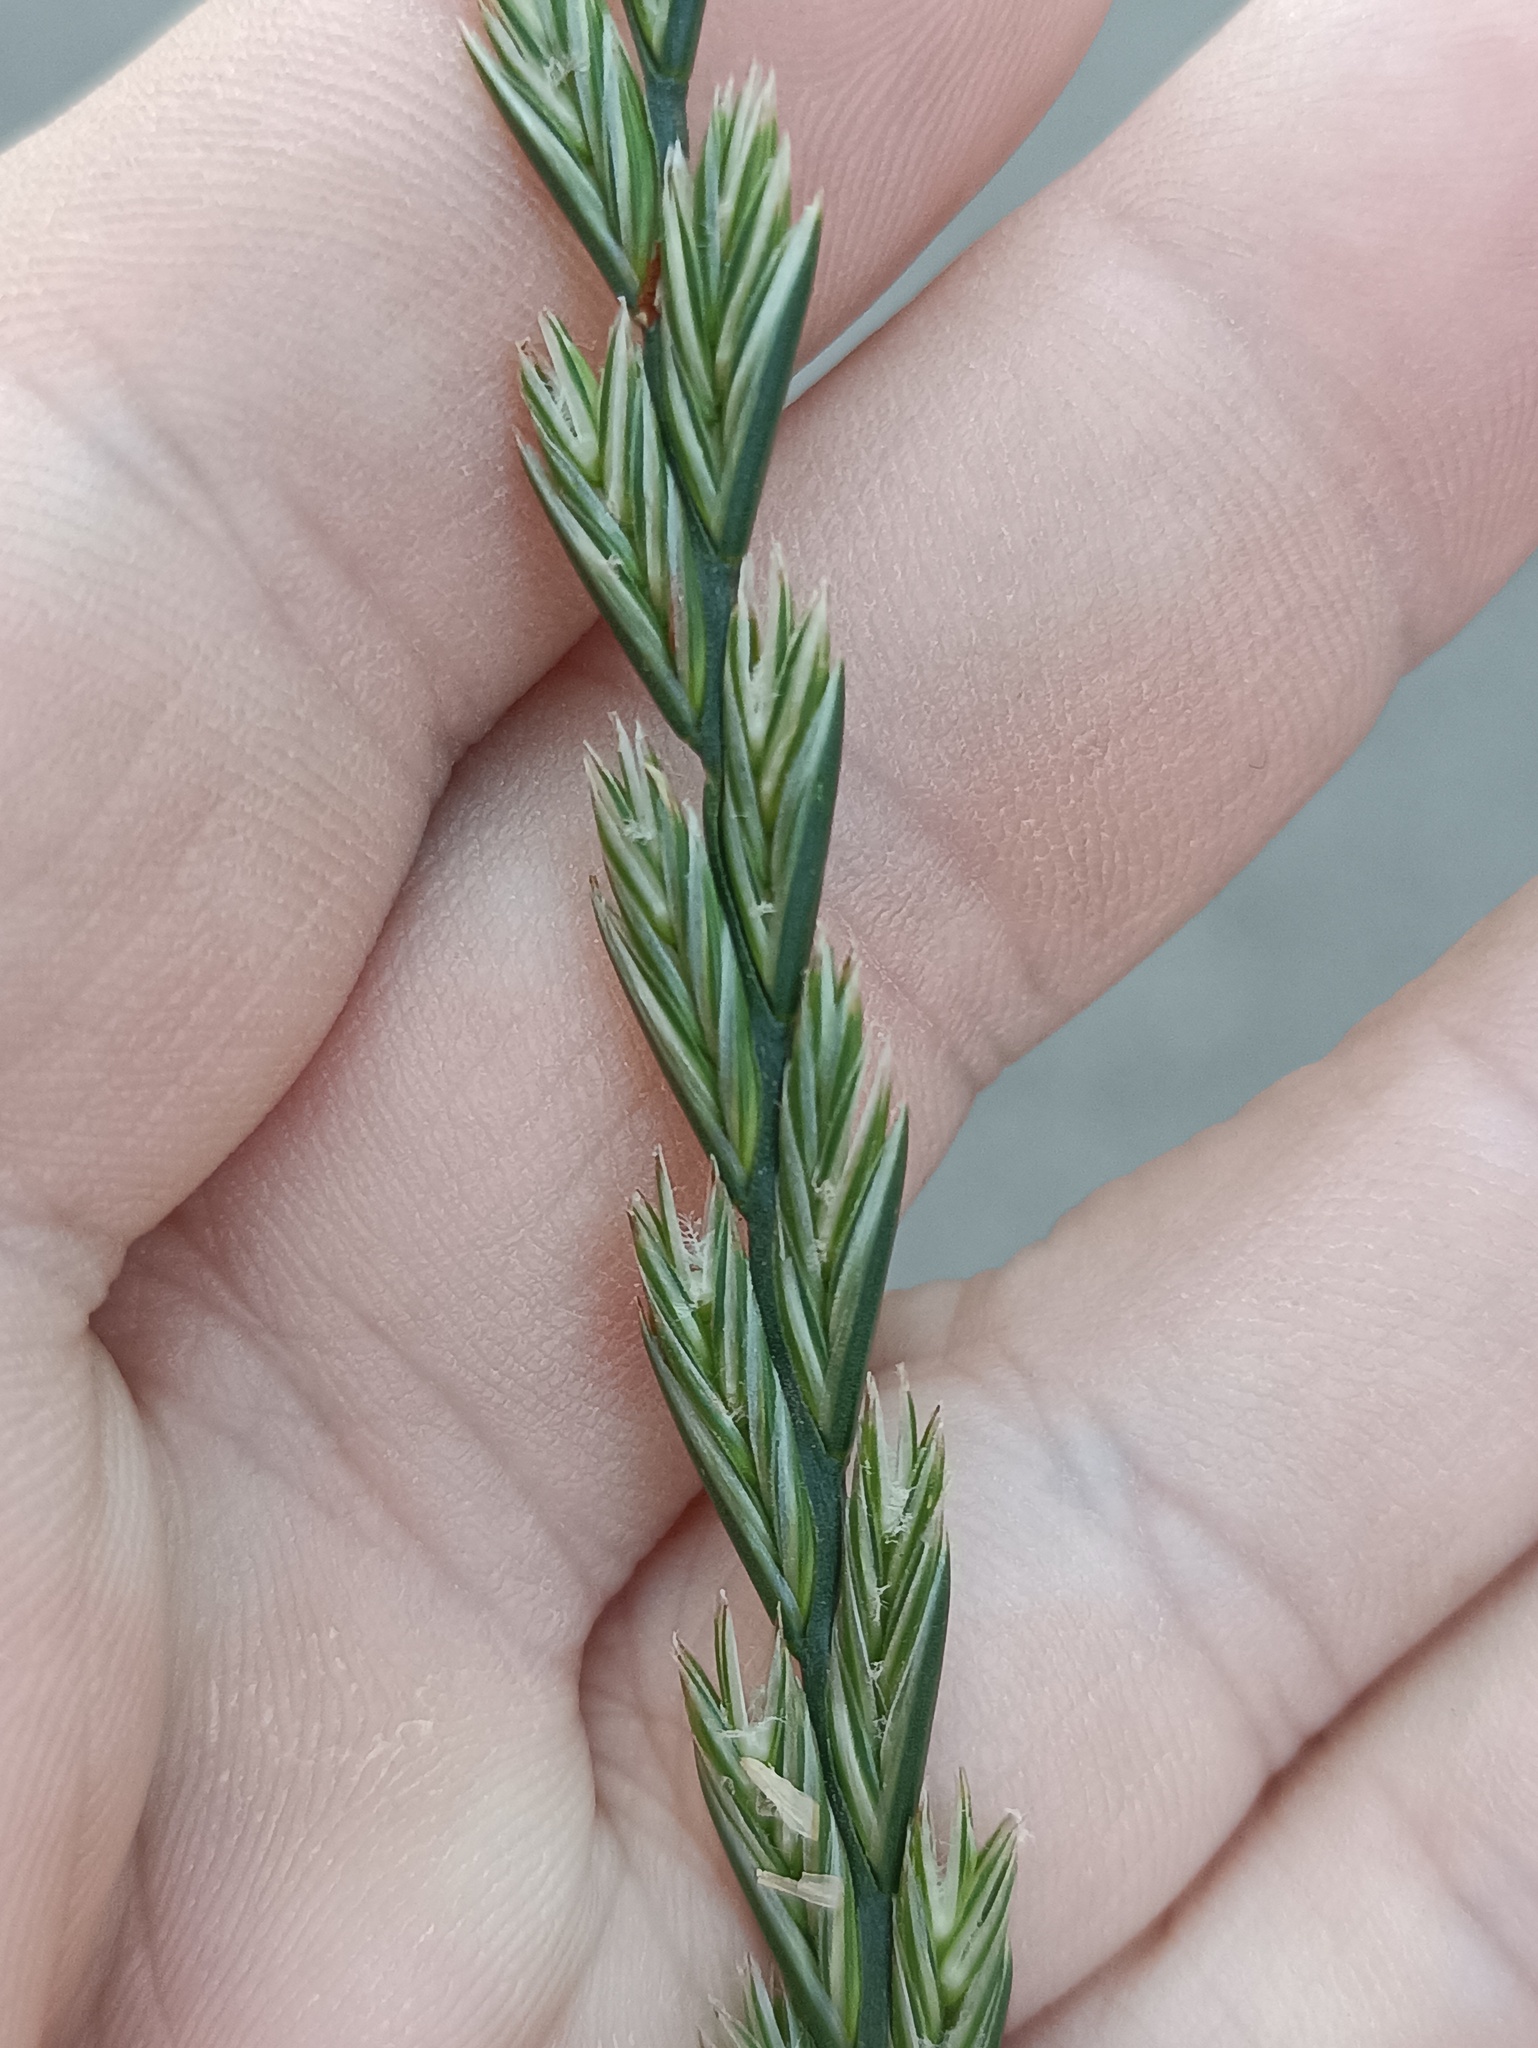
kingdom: Plantae
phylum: Tracheophyta
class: Liliopsida
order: Poales
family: Poaceae
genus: Lolium
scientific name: Lolium perenne
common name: Perennial ryegrass
